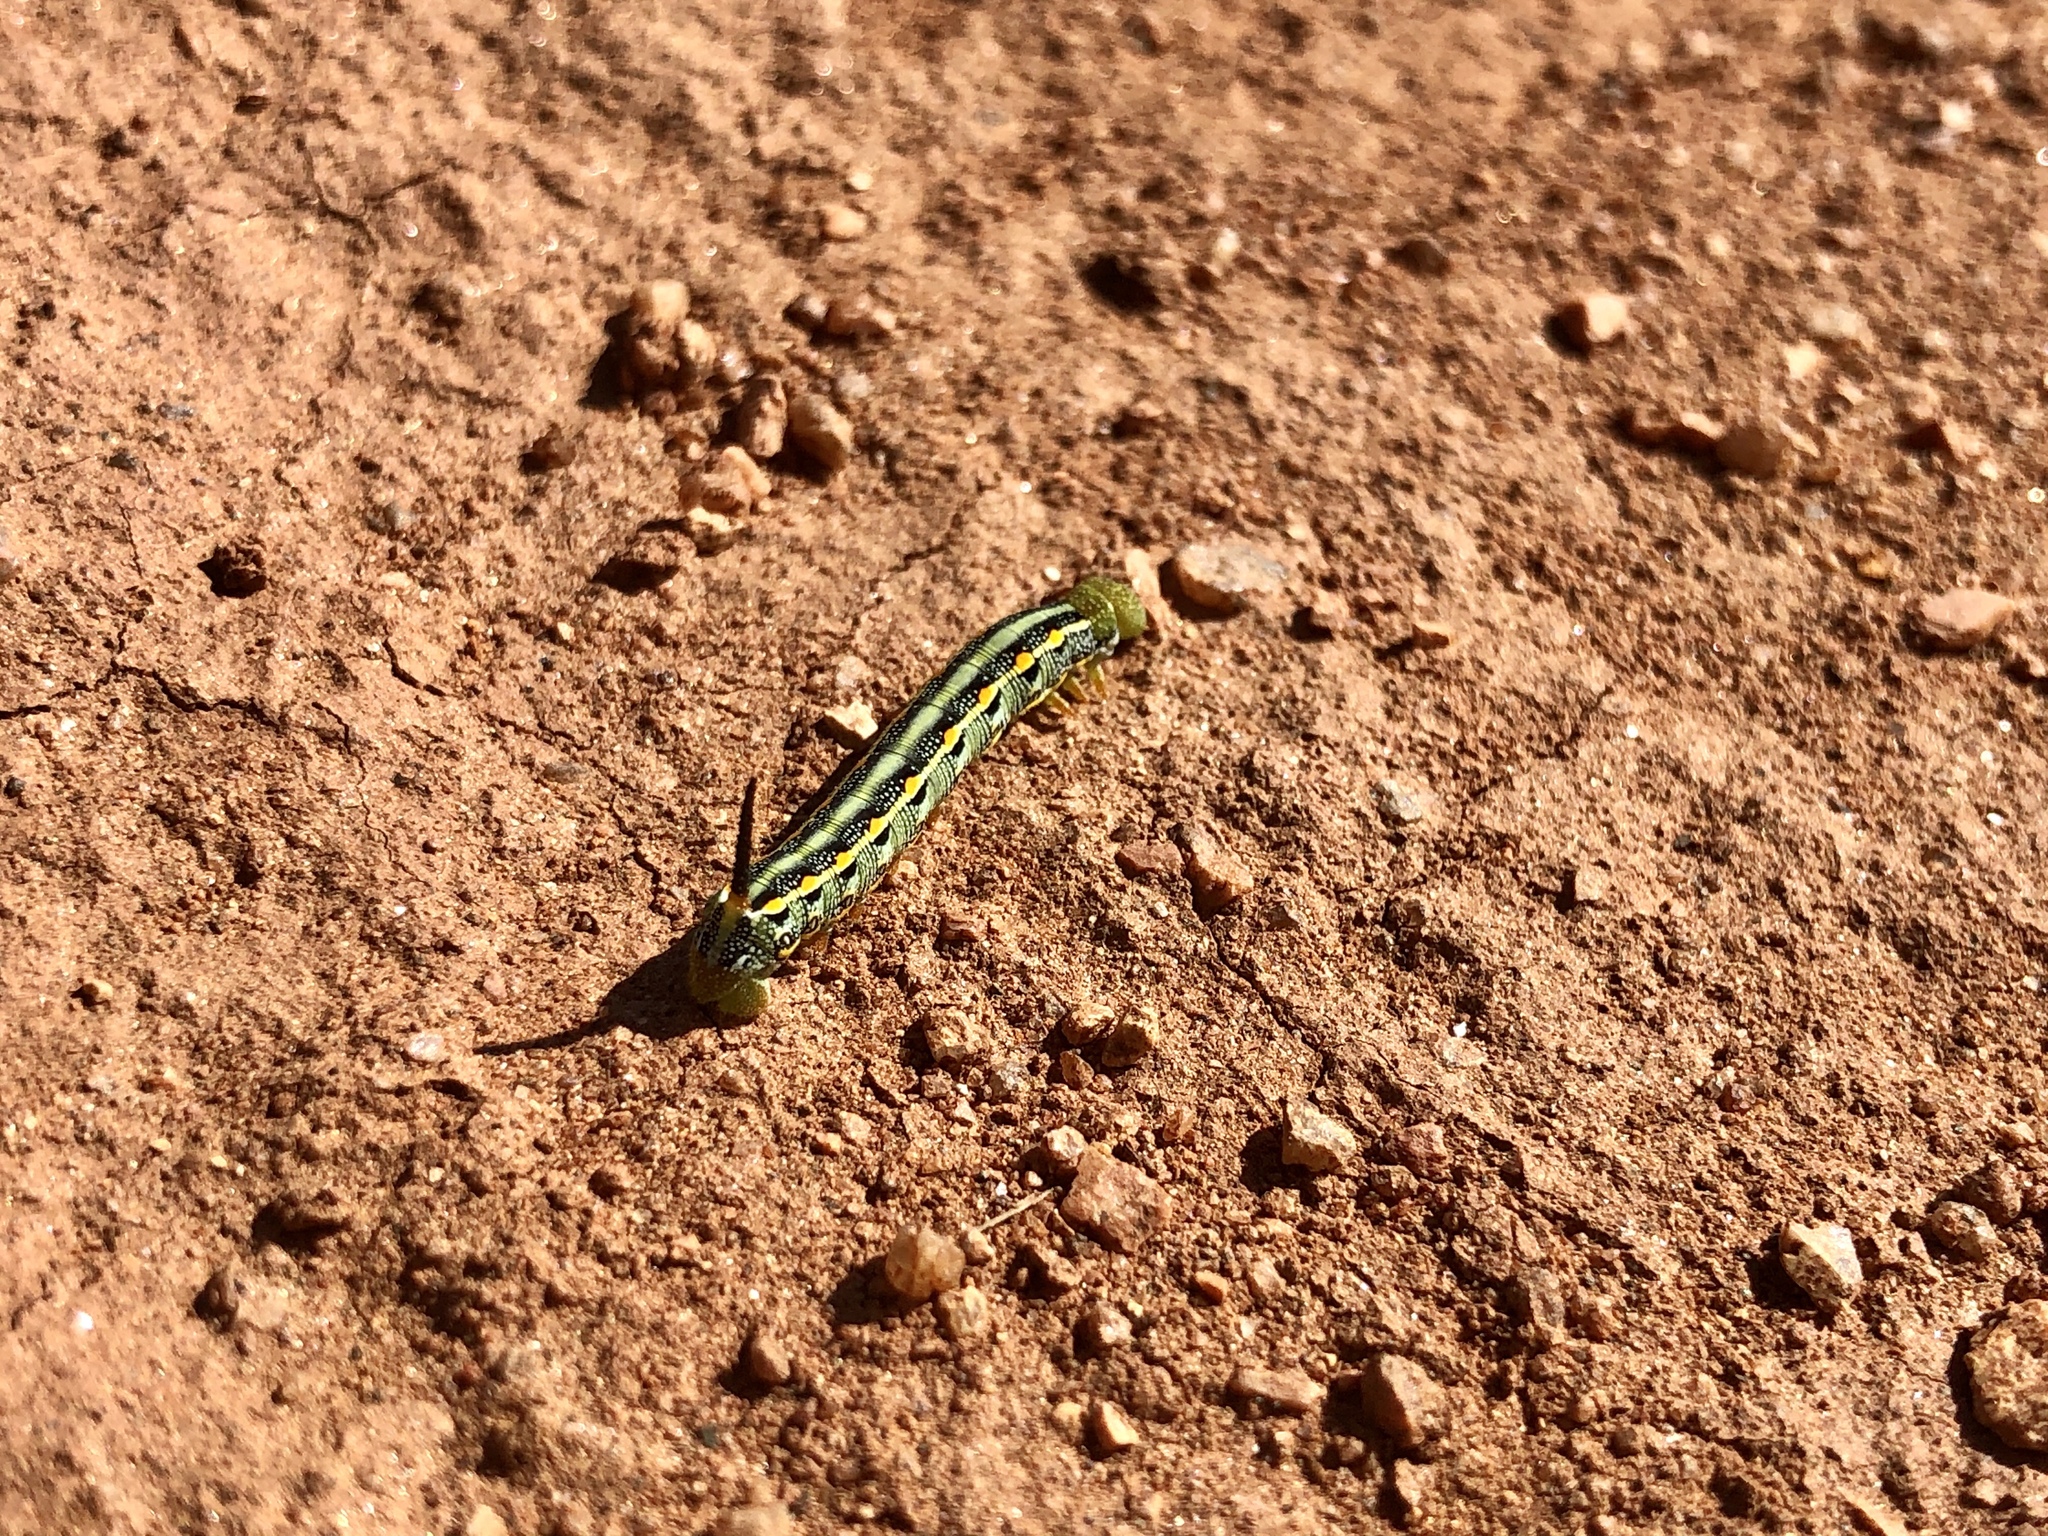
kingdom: Animalia
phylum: Arthropoda
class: Insecta
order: Lepidoptera
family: Sphingidae
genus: Hyles
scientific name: Hyles lineata
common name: White-lined sphinx
